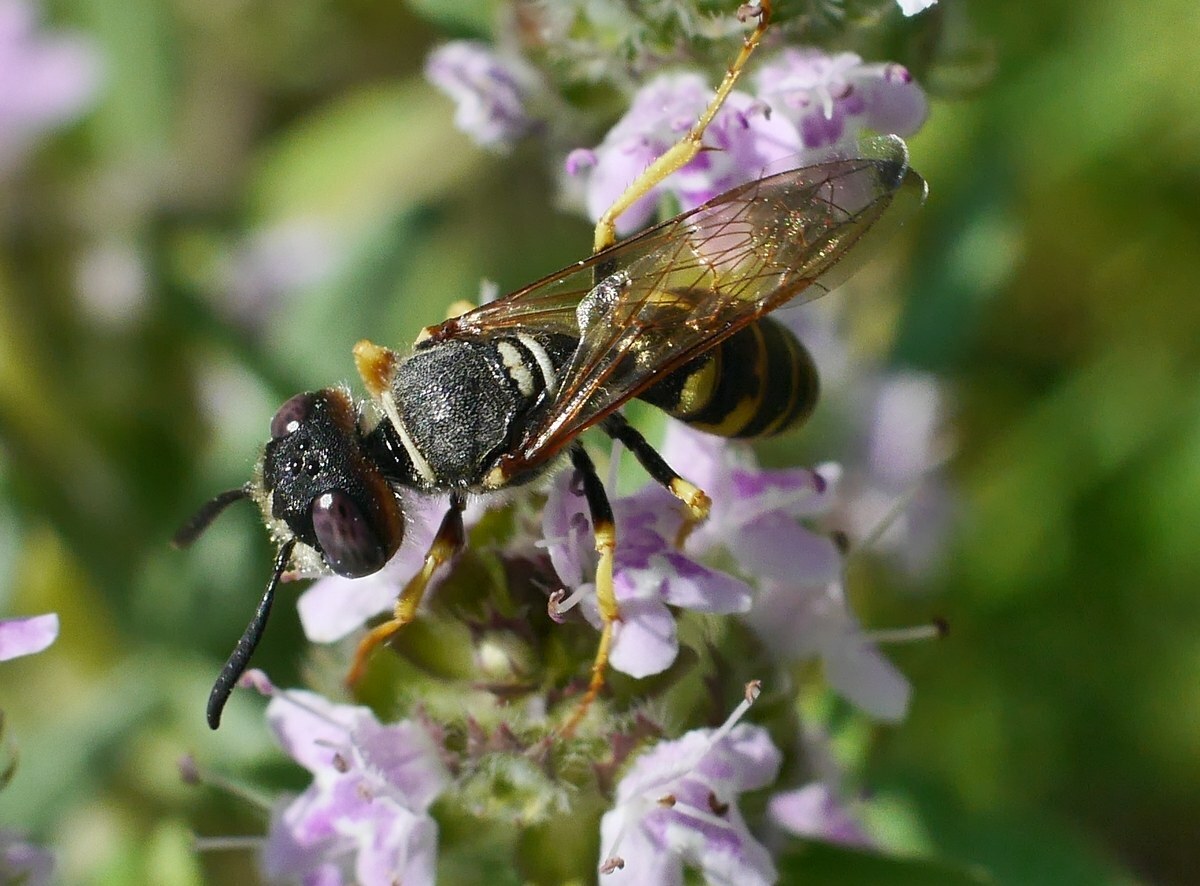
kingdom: Animalia
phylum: Arthropoda
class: Insecta
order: Hymenoptera
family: Crabronidae
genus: Philanthus
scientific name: Philanthus triangulum
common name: Bee wolf
